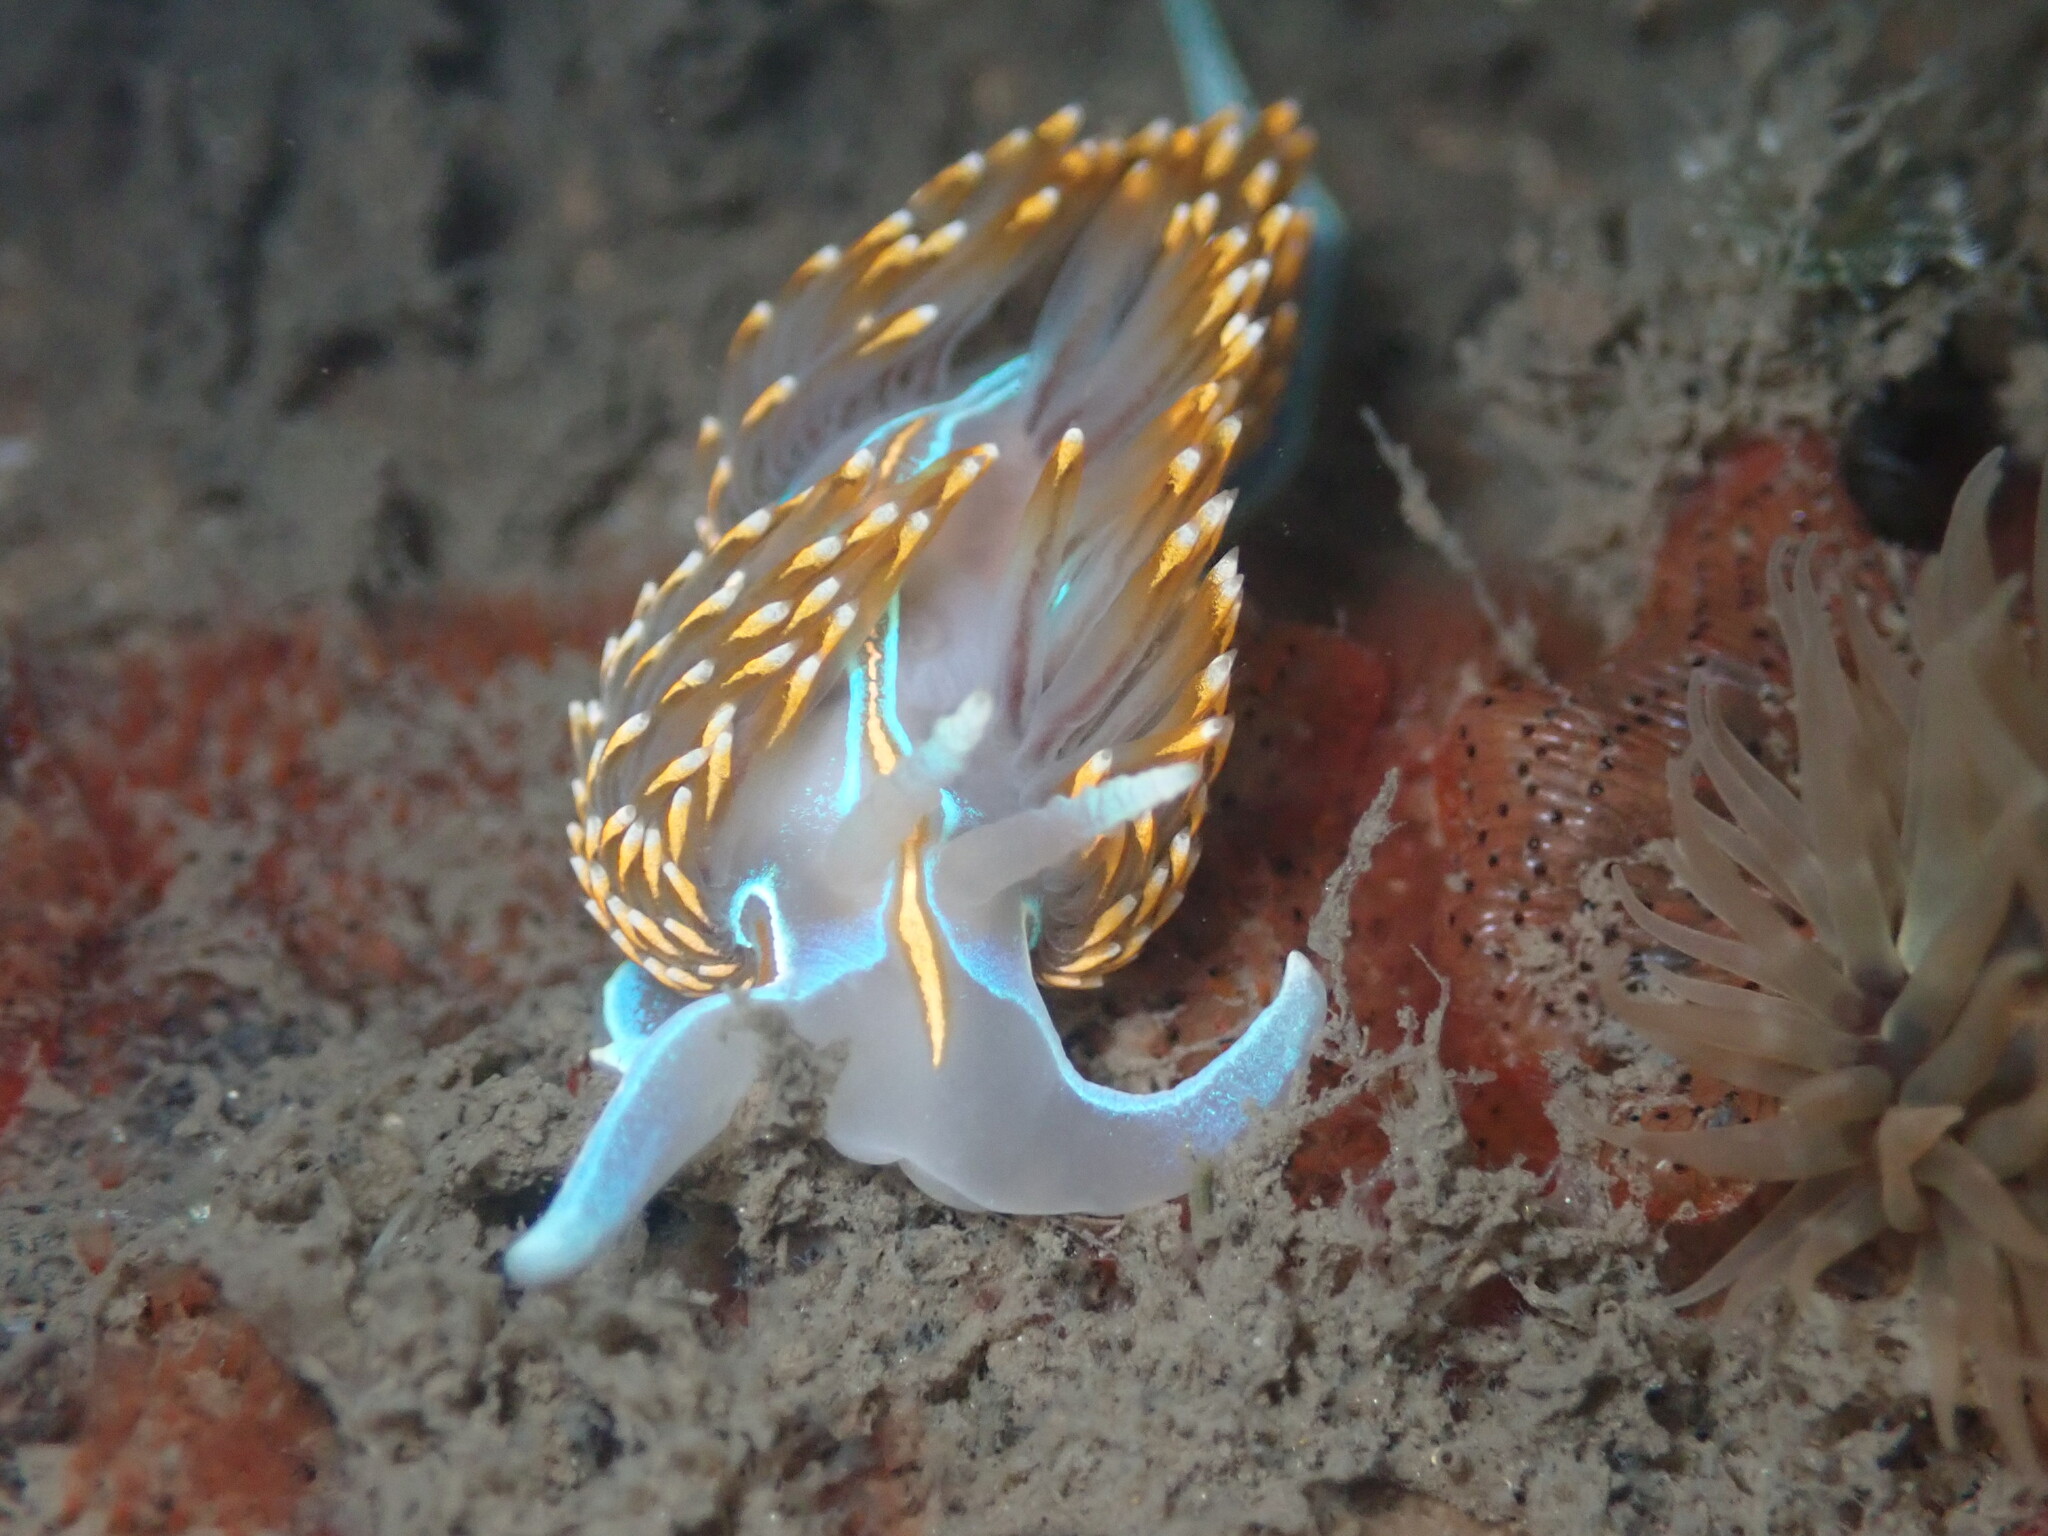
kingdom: Animalia
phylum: Mollusca
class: Gastropoda
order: Nudibranchia
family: Myrrhinidae
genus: Hermissenda
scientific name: Hermissenda opalescens
